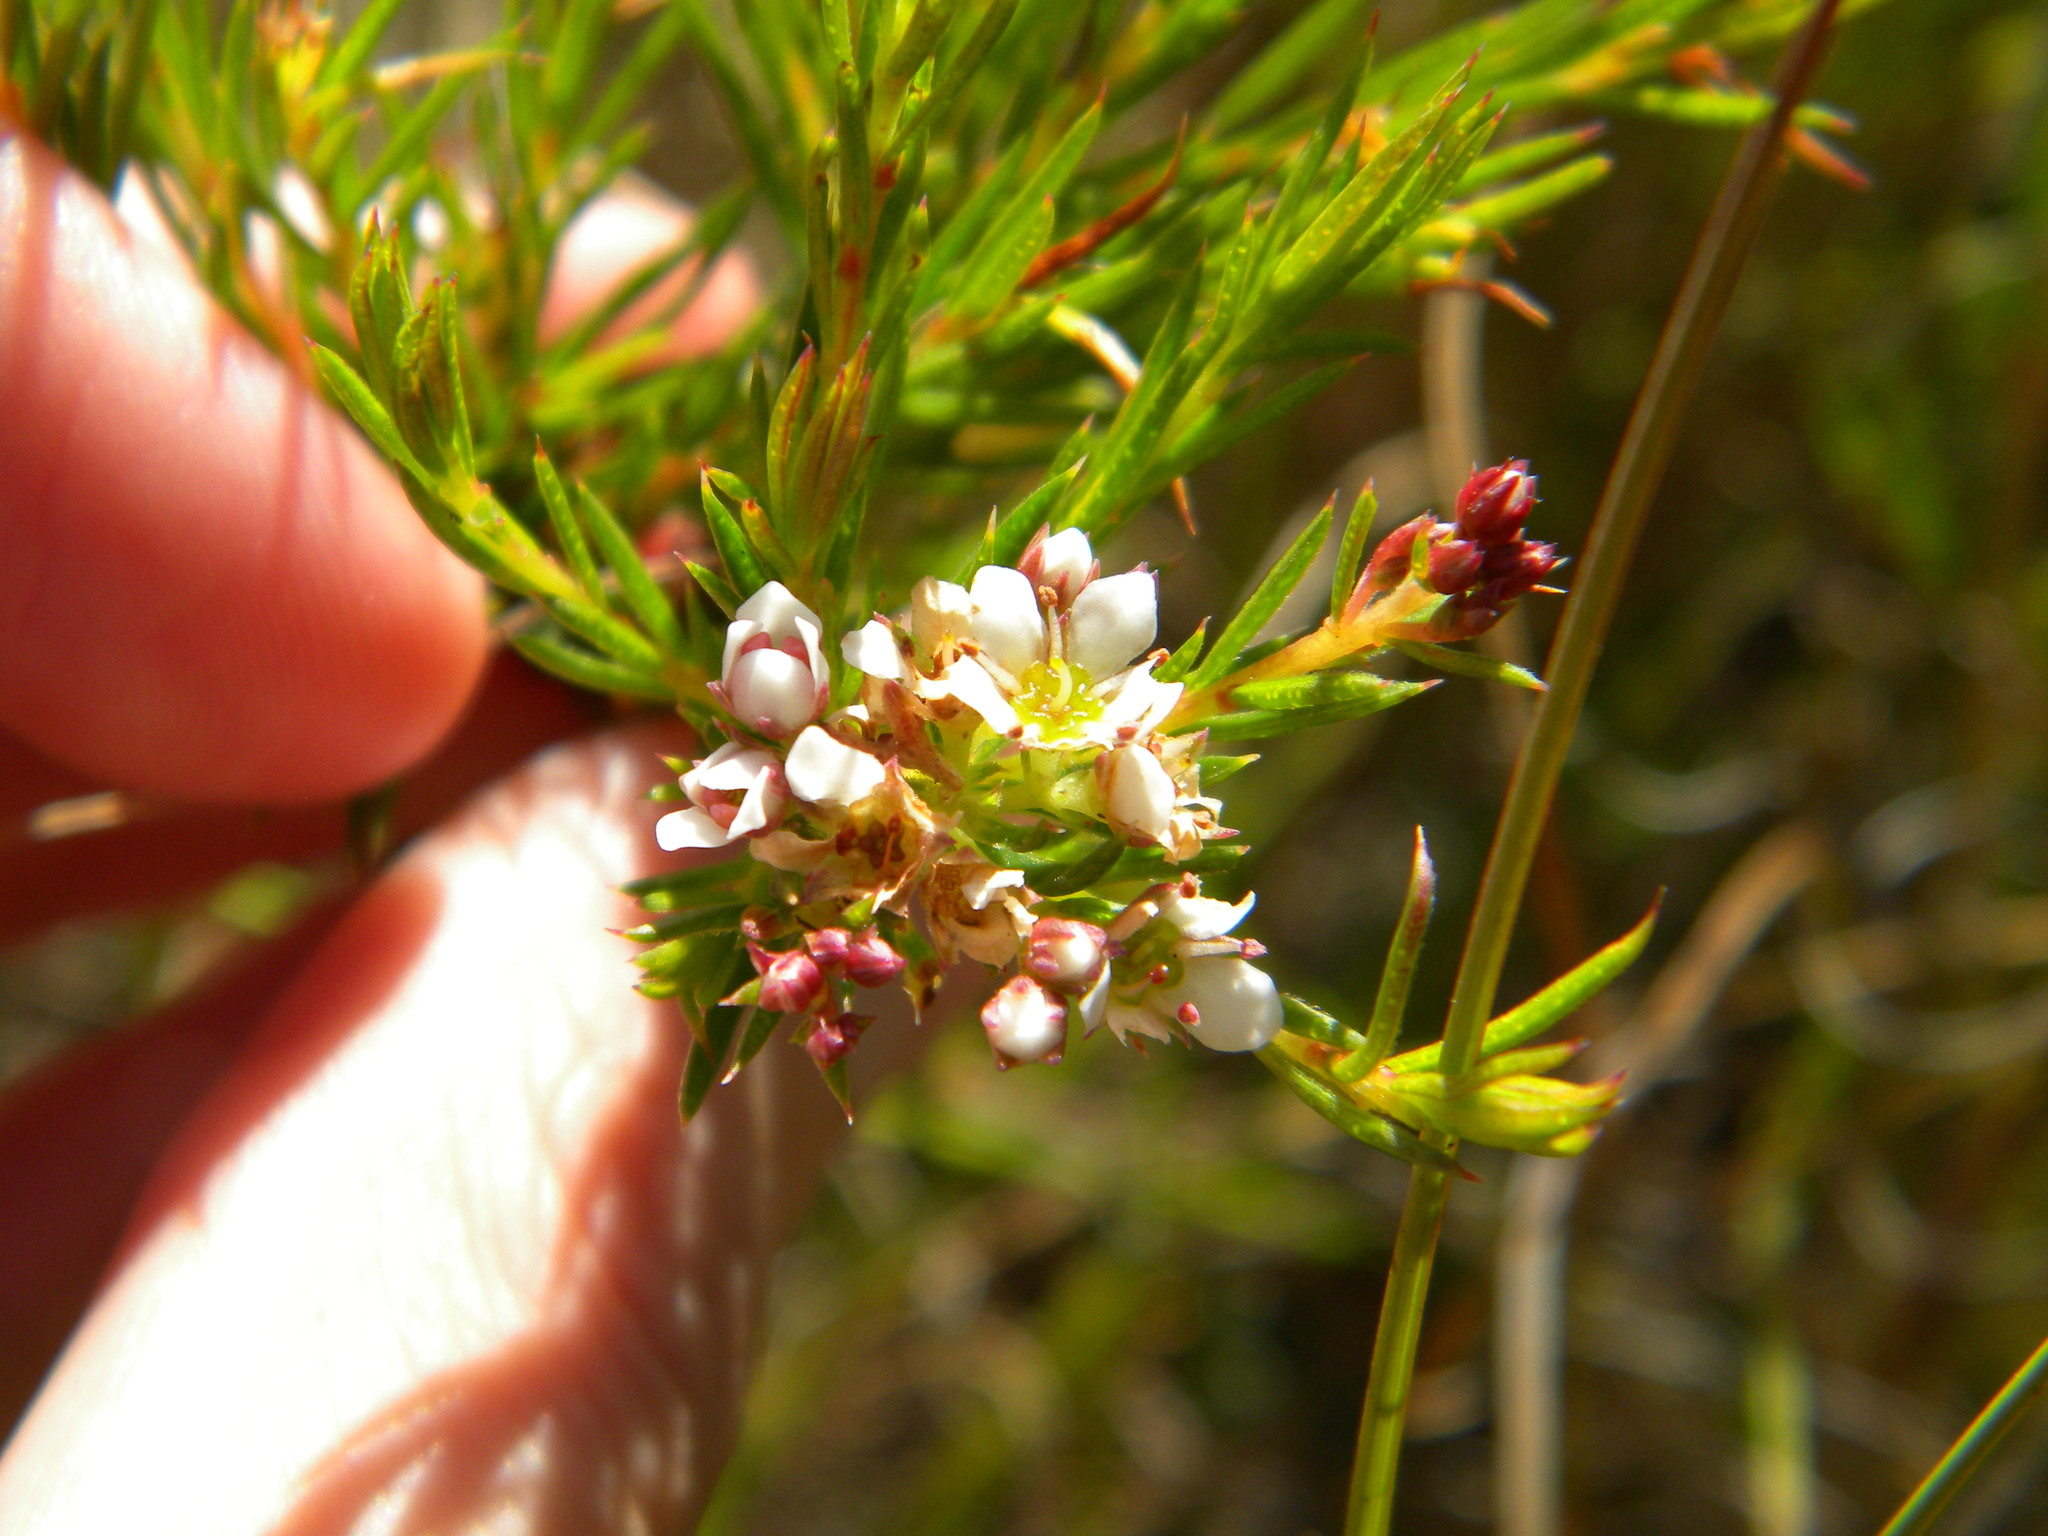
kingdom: Plantae
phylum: Tracheophyta
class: Magnoliopsida
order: Sapindales
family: Rutaceae
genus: Diosma
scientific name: Diosma hirsuta
